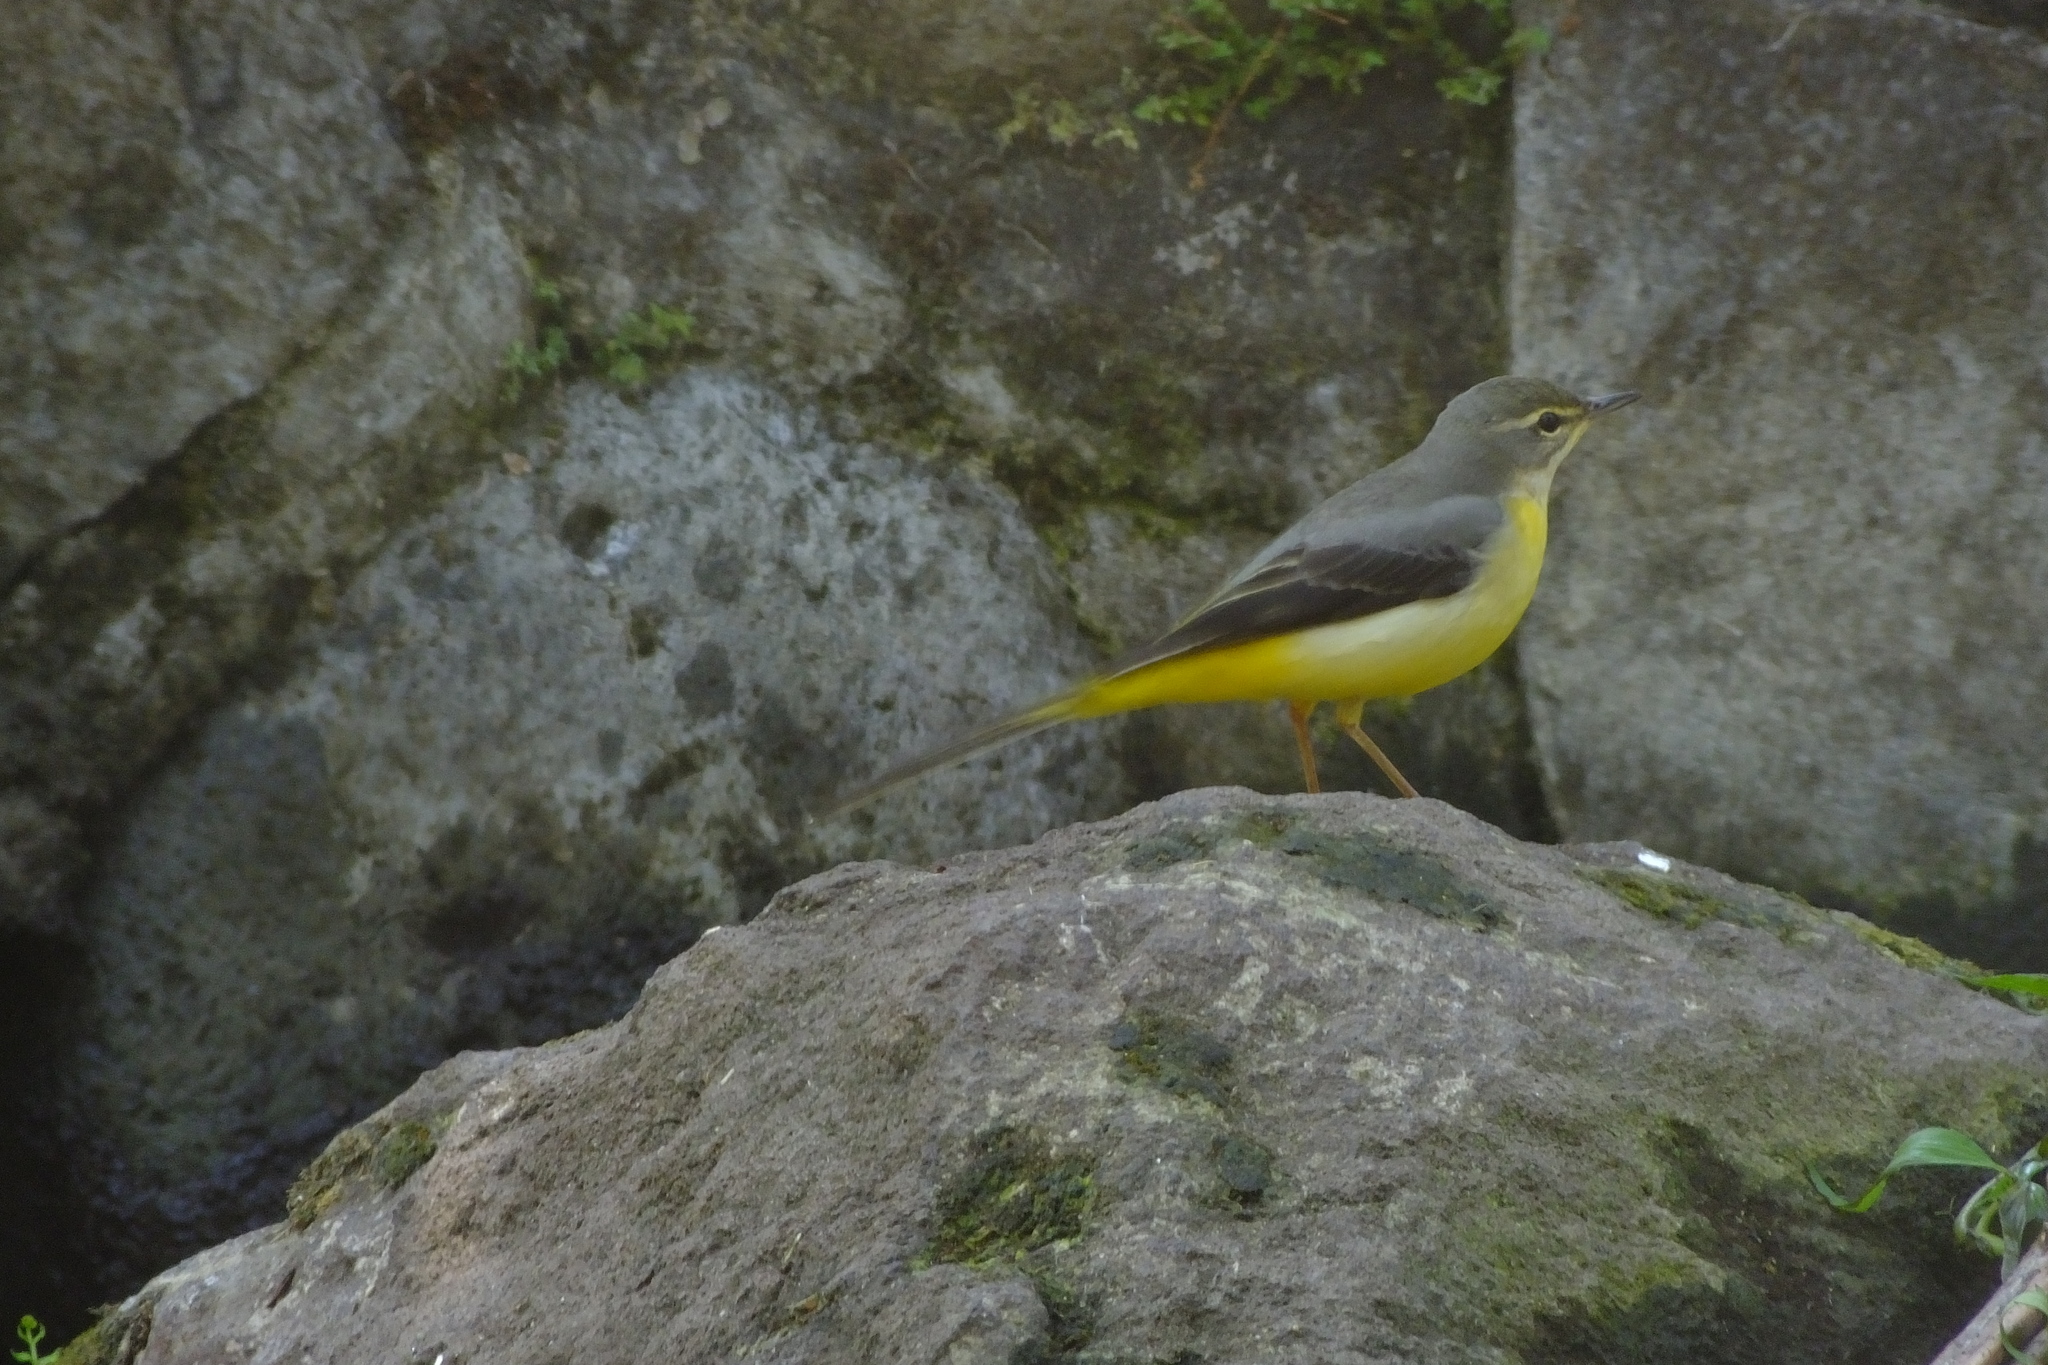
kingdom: Animalia
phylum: Chordata
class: Aves
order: Passeriformes
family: Motacillidae
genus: Motacilla
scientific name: Motacilla cinerea
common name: Grey wagtail
